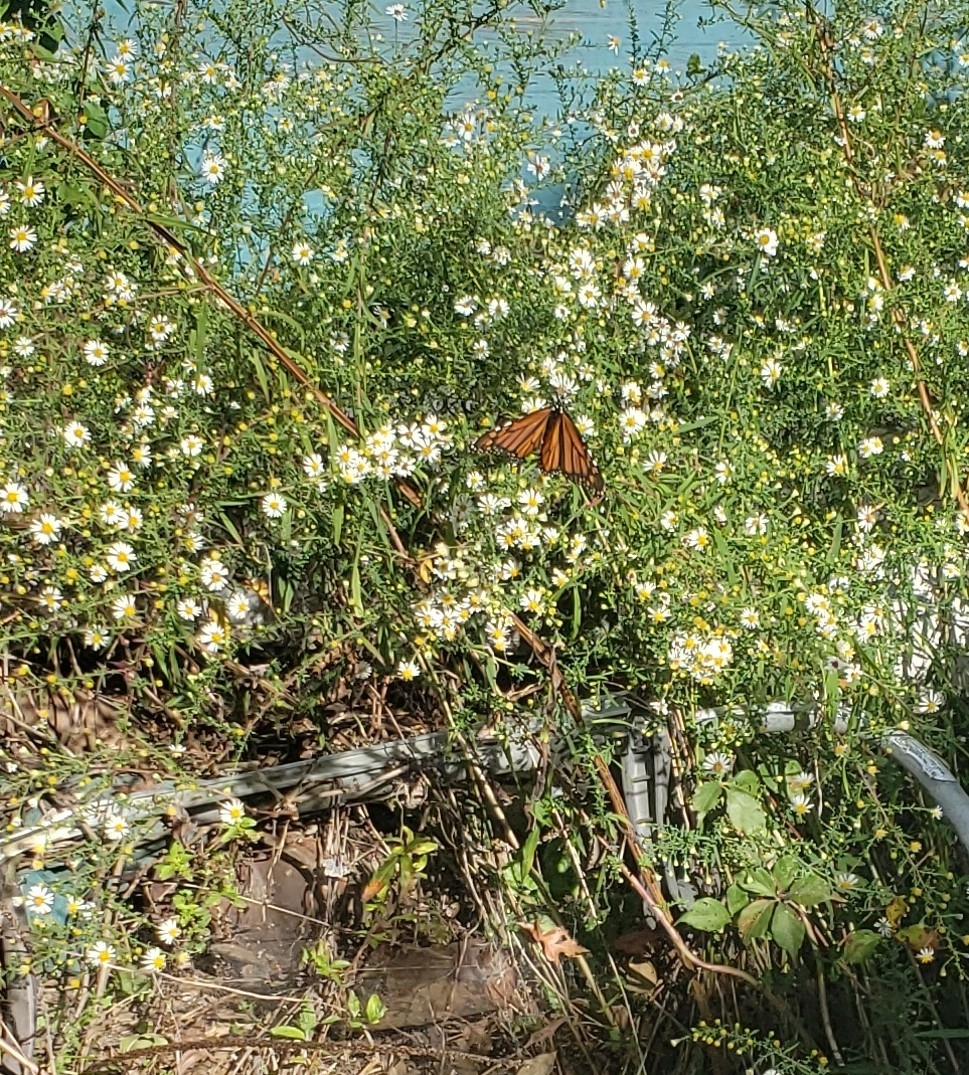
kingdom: Animalia
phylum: Arthropoda
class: Insecta
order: Lepidoptera
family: Nymphalidae
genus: Danaus
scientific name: Danaus plexippus
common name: Monarch
